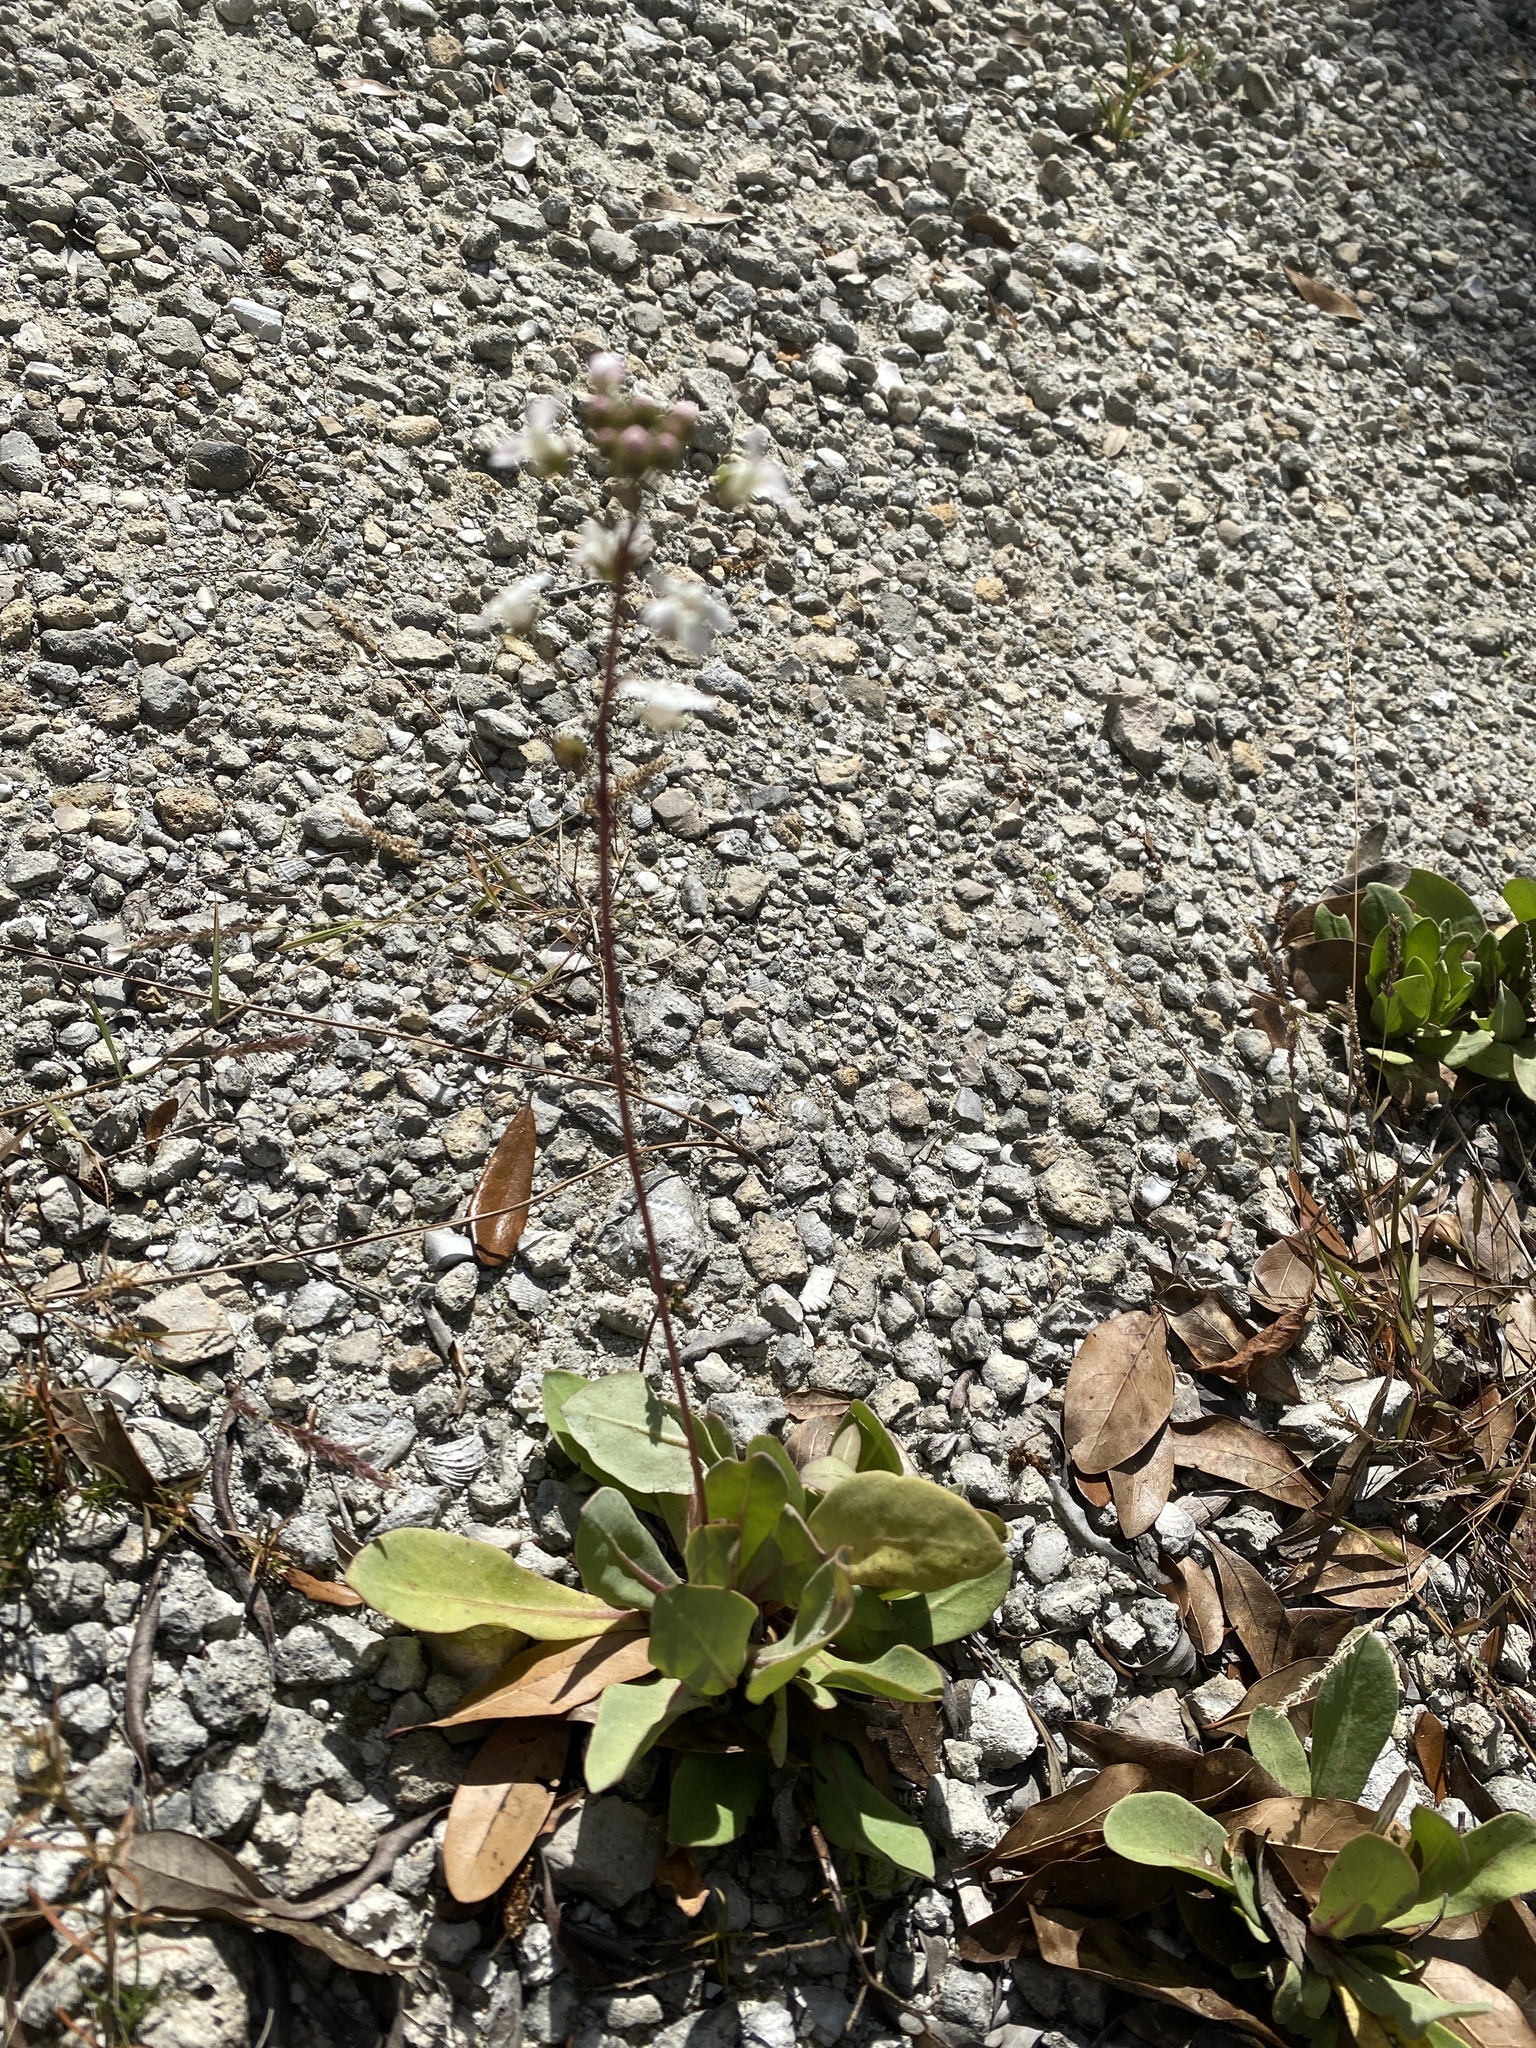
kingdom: Plantae
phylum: Tracheophyta
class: Magnoliopsida
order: Ericales
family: Primulaceae
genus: Samolus
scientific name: Samolus ebracteatus
